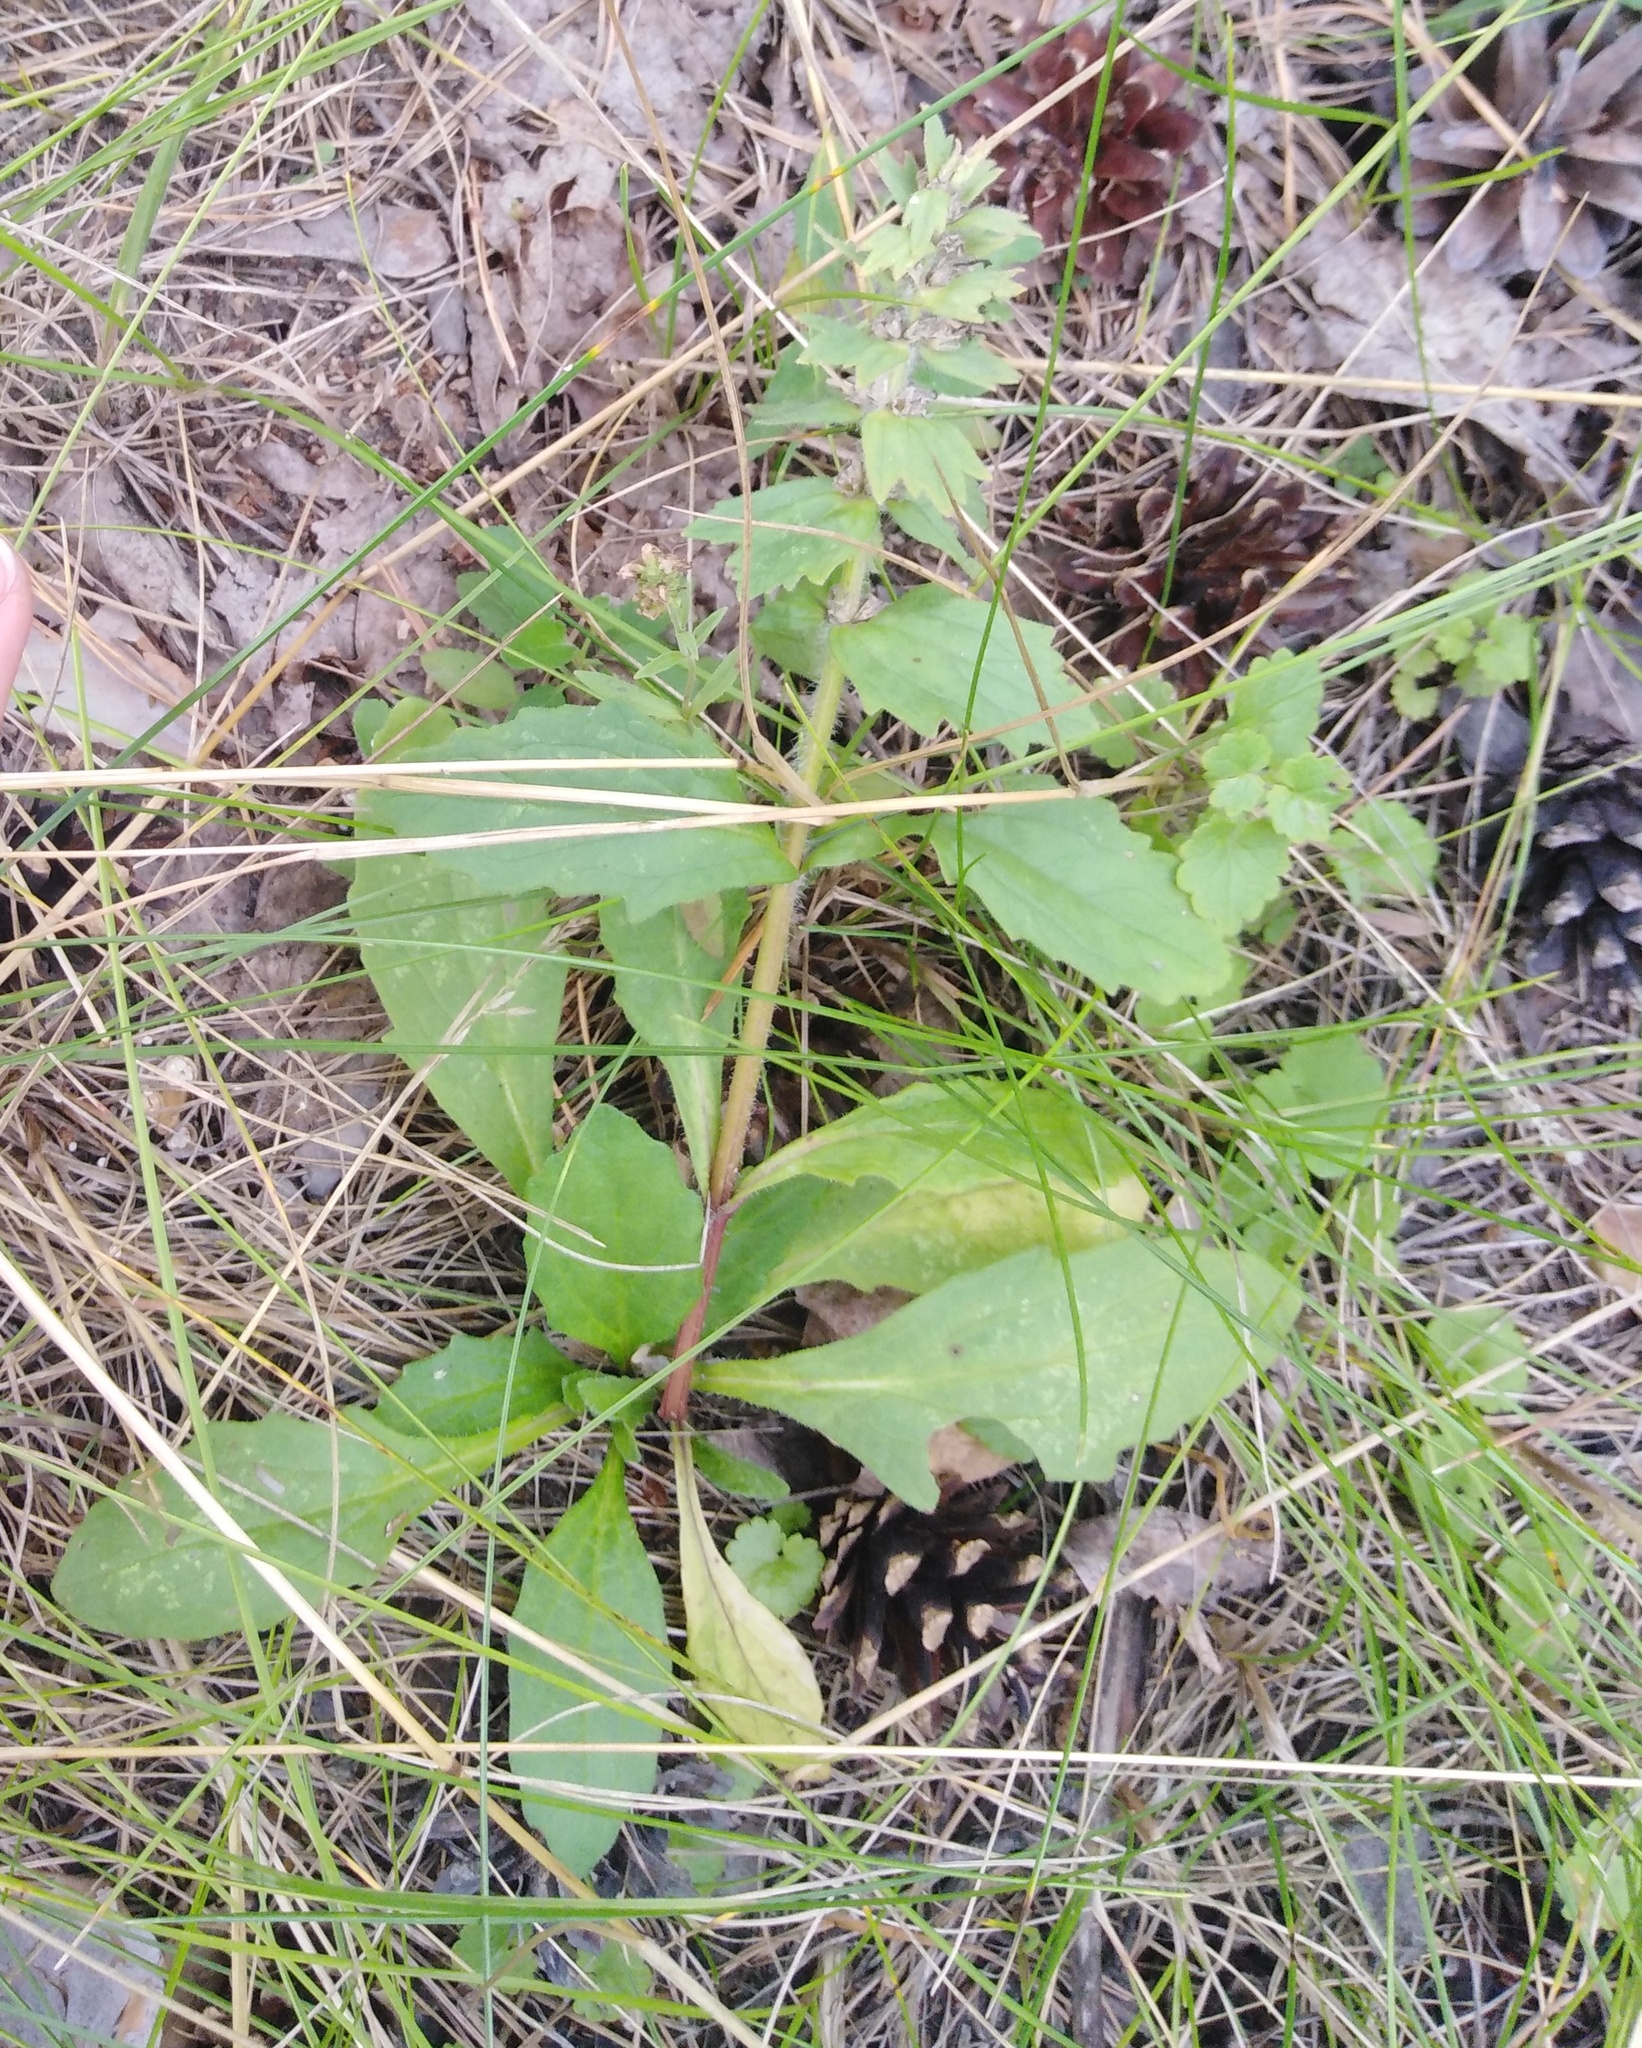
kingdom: Plantae
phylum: Tracheophyta
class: Magnoliopsida
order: Lamiales
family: Lamiaceae
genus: Ajuga
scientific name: Ajuga genevensis
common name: Blue bugle
